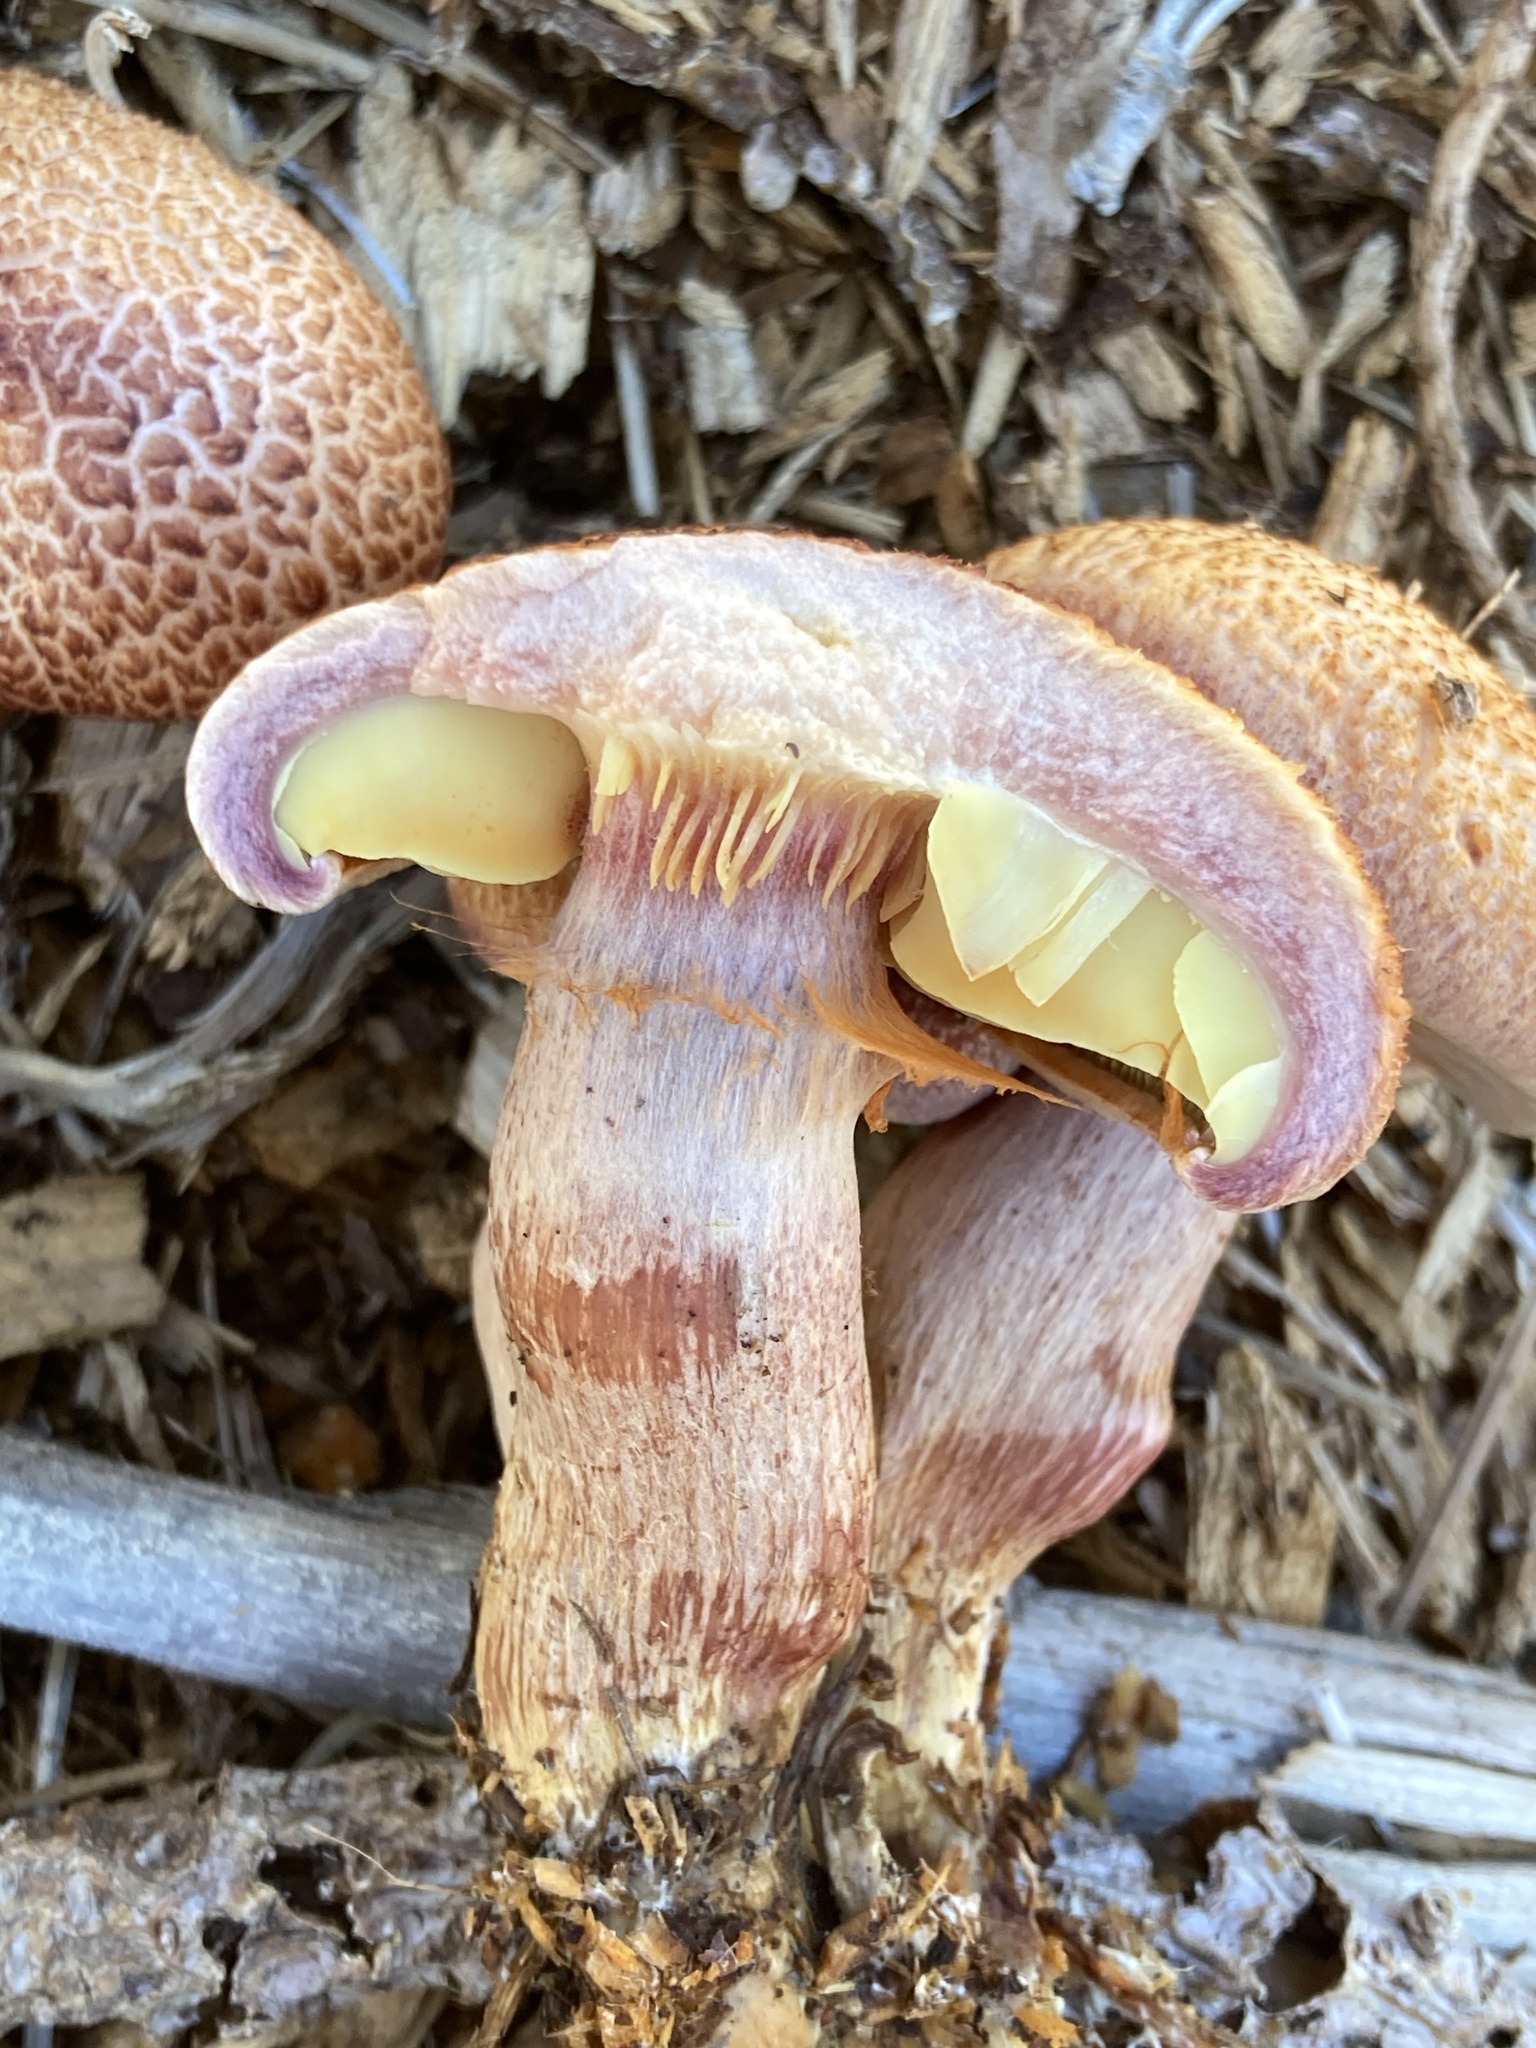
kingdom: Fungi
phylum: Basidiomycota
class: Agaricomycetes
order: Agaricales
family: Hymenogastraceae
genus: Gymnopilus
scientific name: Gymnopilus luteofolius
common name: Yellow-gilled gymnopilus
